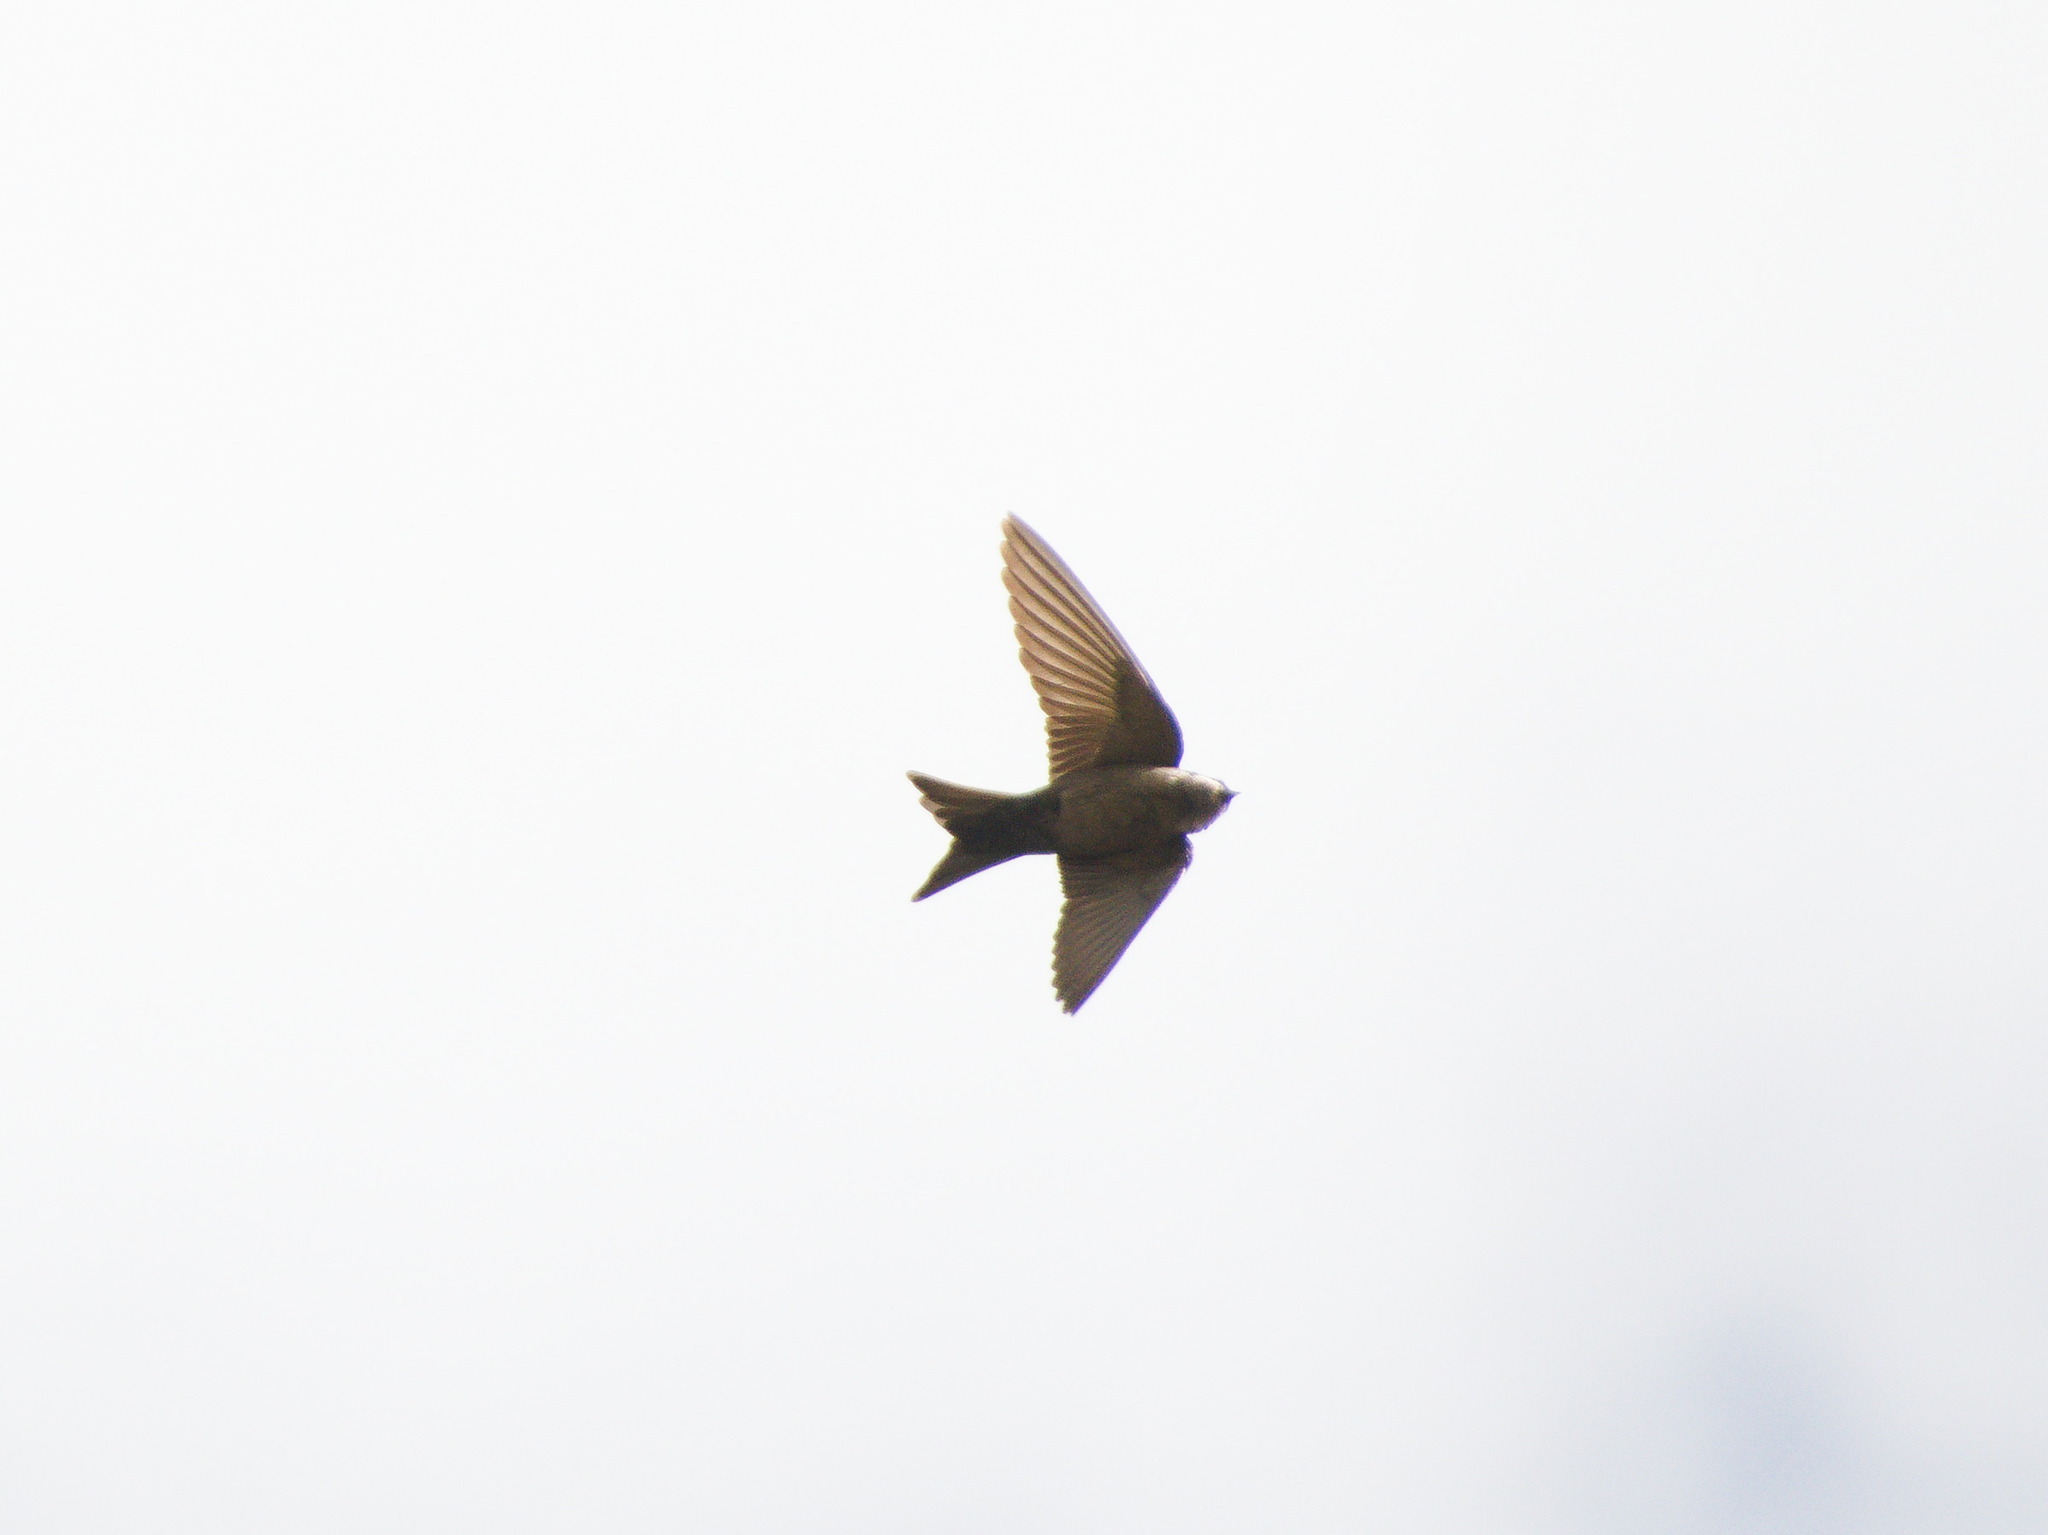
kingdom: Animalia
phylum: Chordata
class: Aves
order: Passeriformes
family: Hirundinidae
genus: Notiochelidon
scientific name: Notiochelidon murina
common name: Brown-bellied swallow
